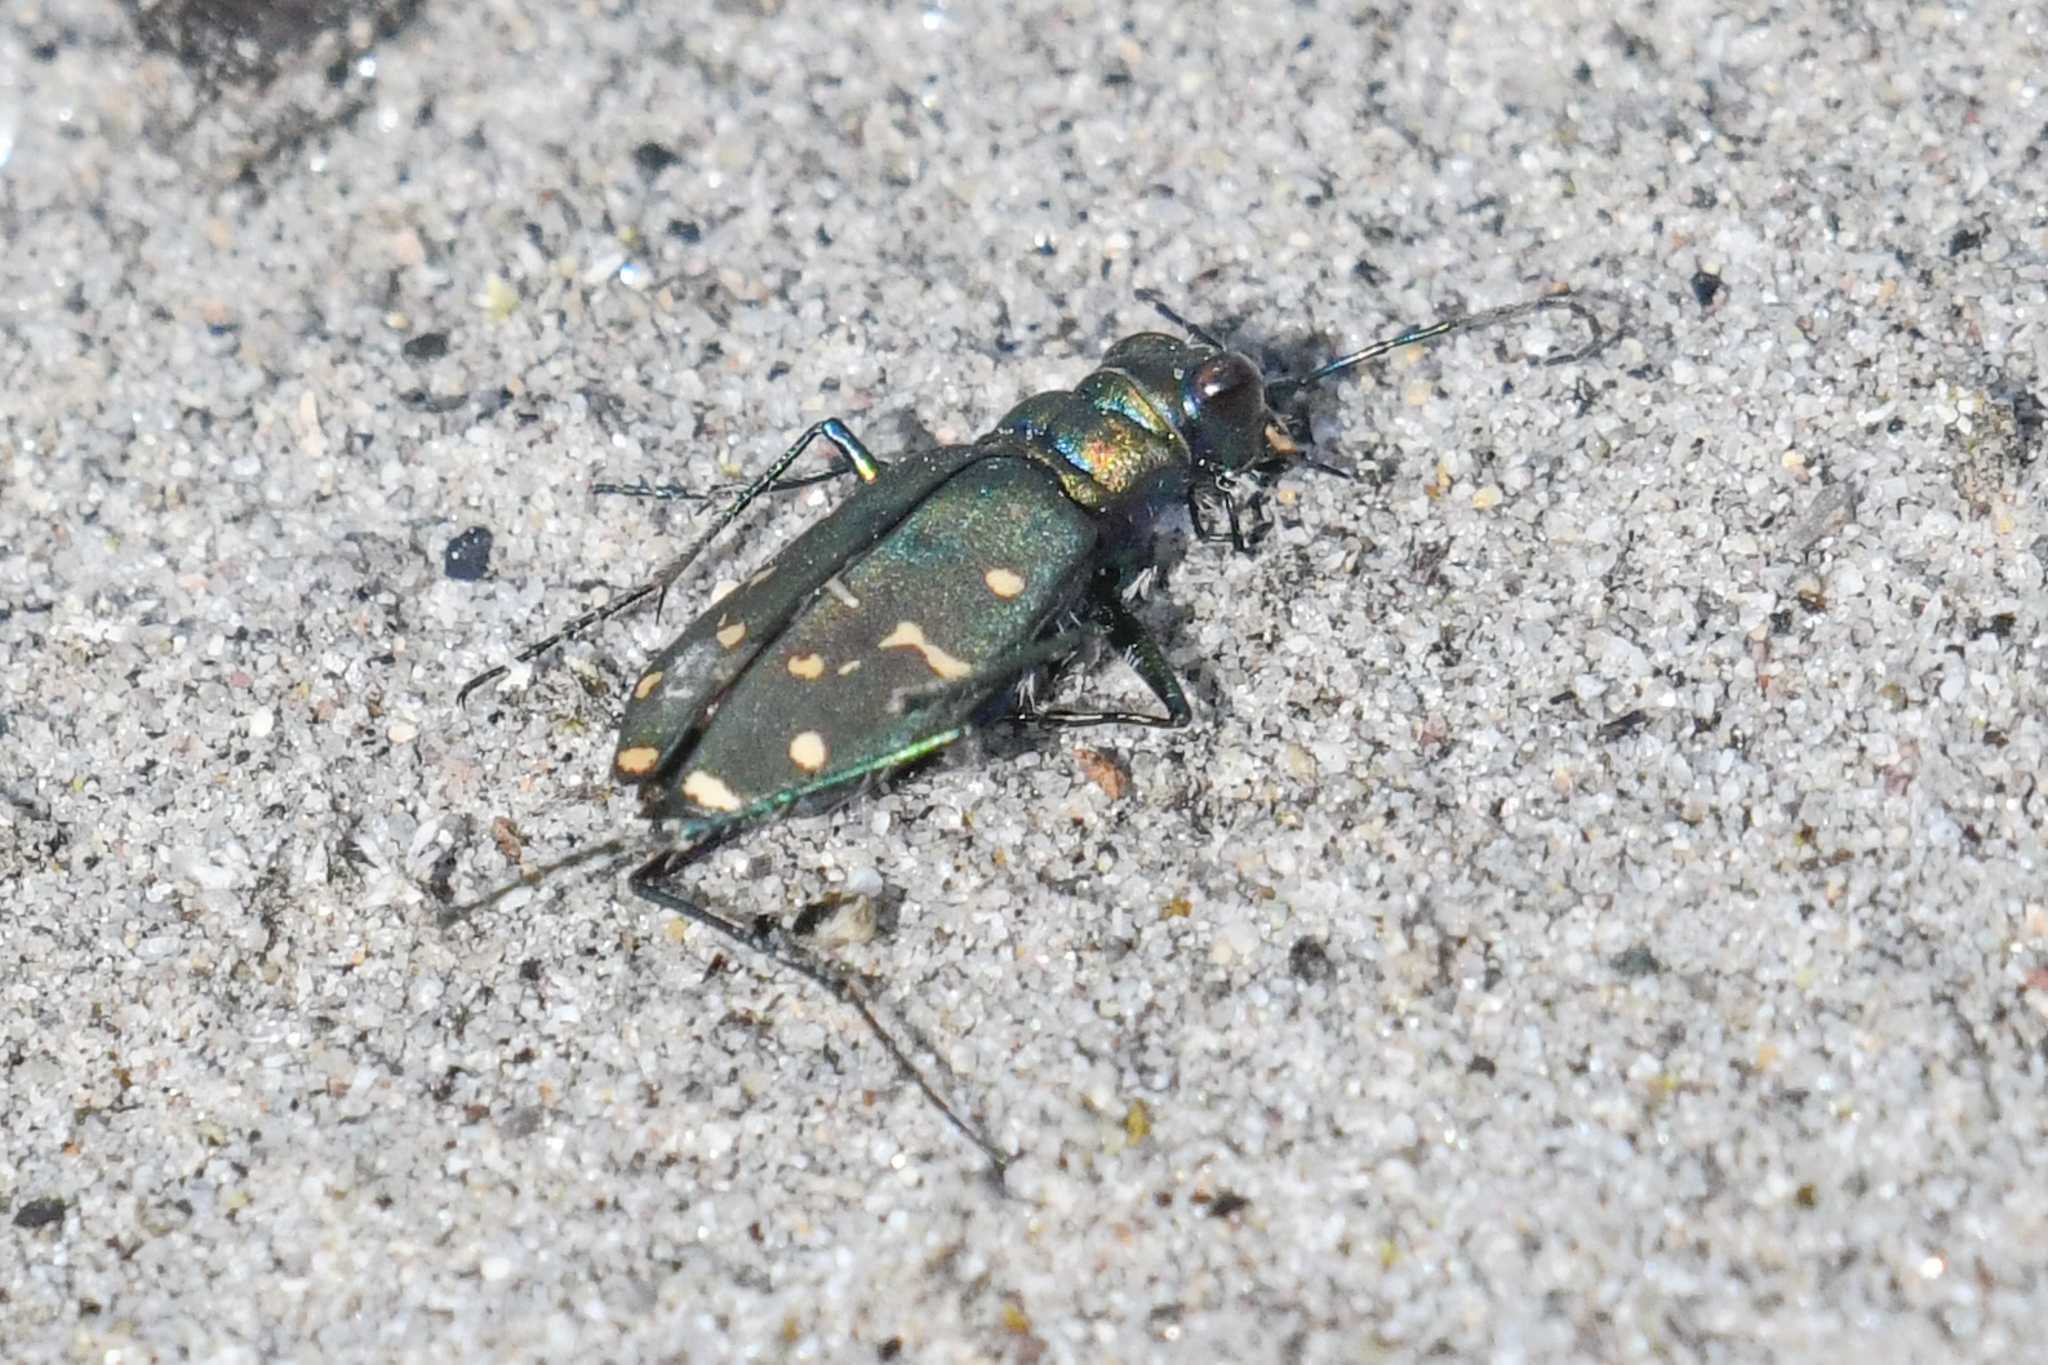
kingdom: Animalia
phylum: Arthropoda
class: Insecta
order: Coleoptera
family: Carabidae
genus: Cicindela
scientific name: Cicindela oregona
